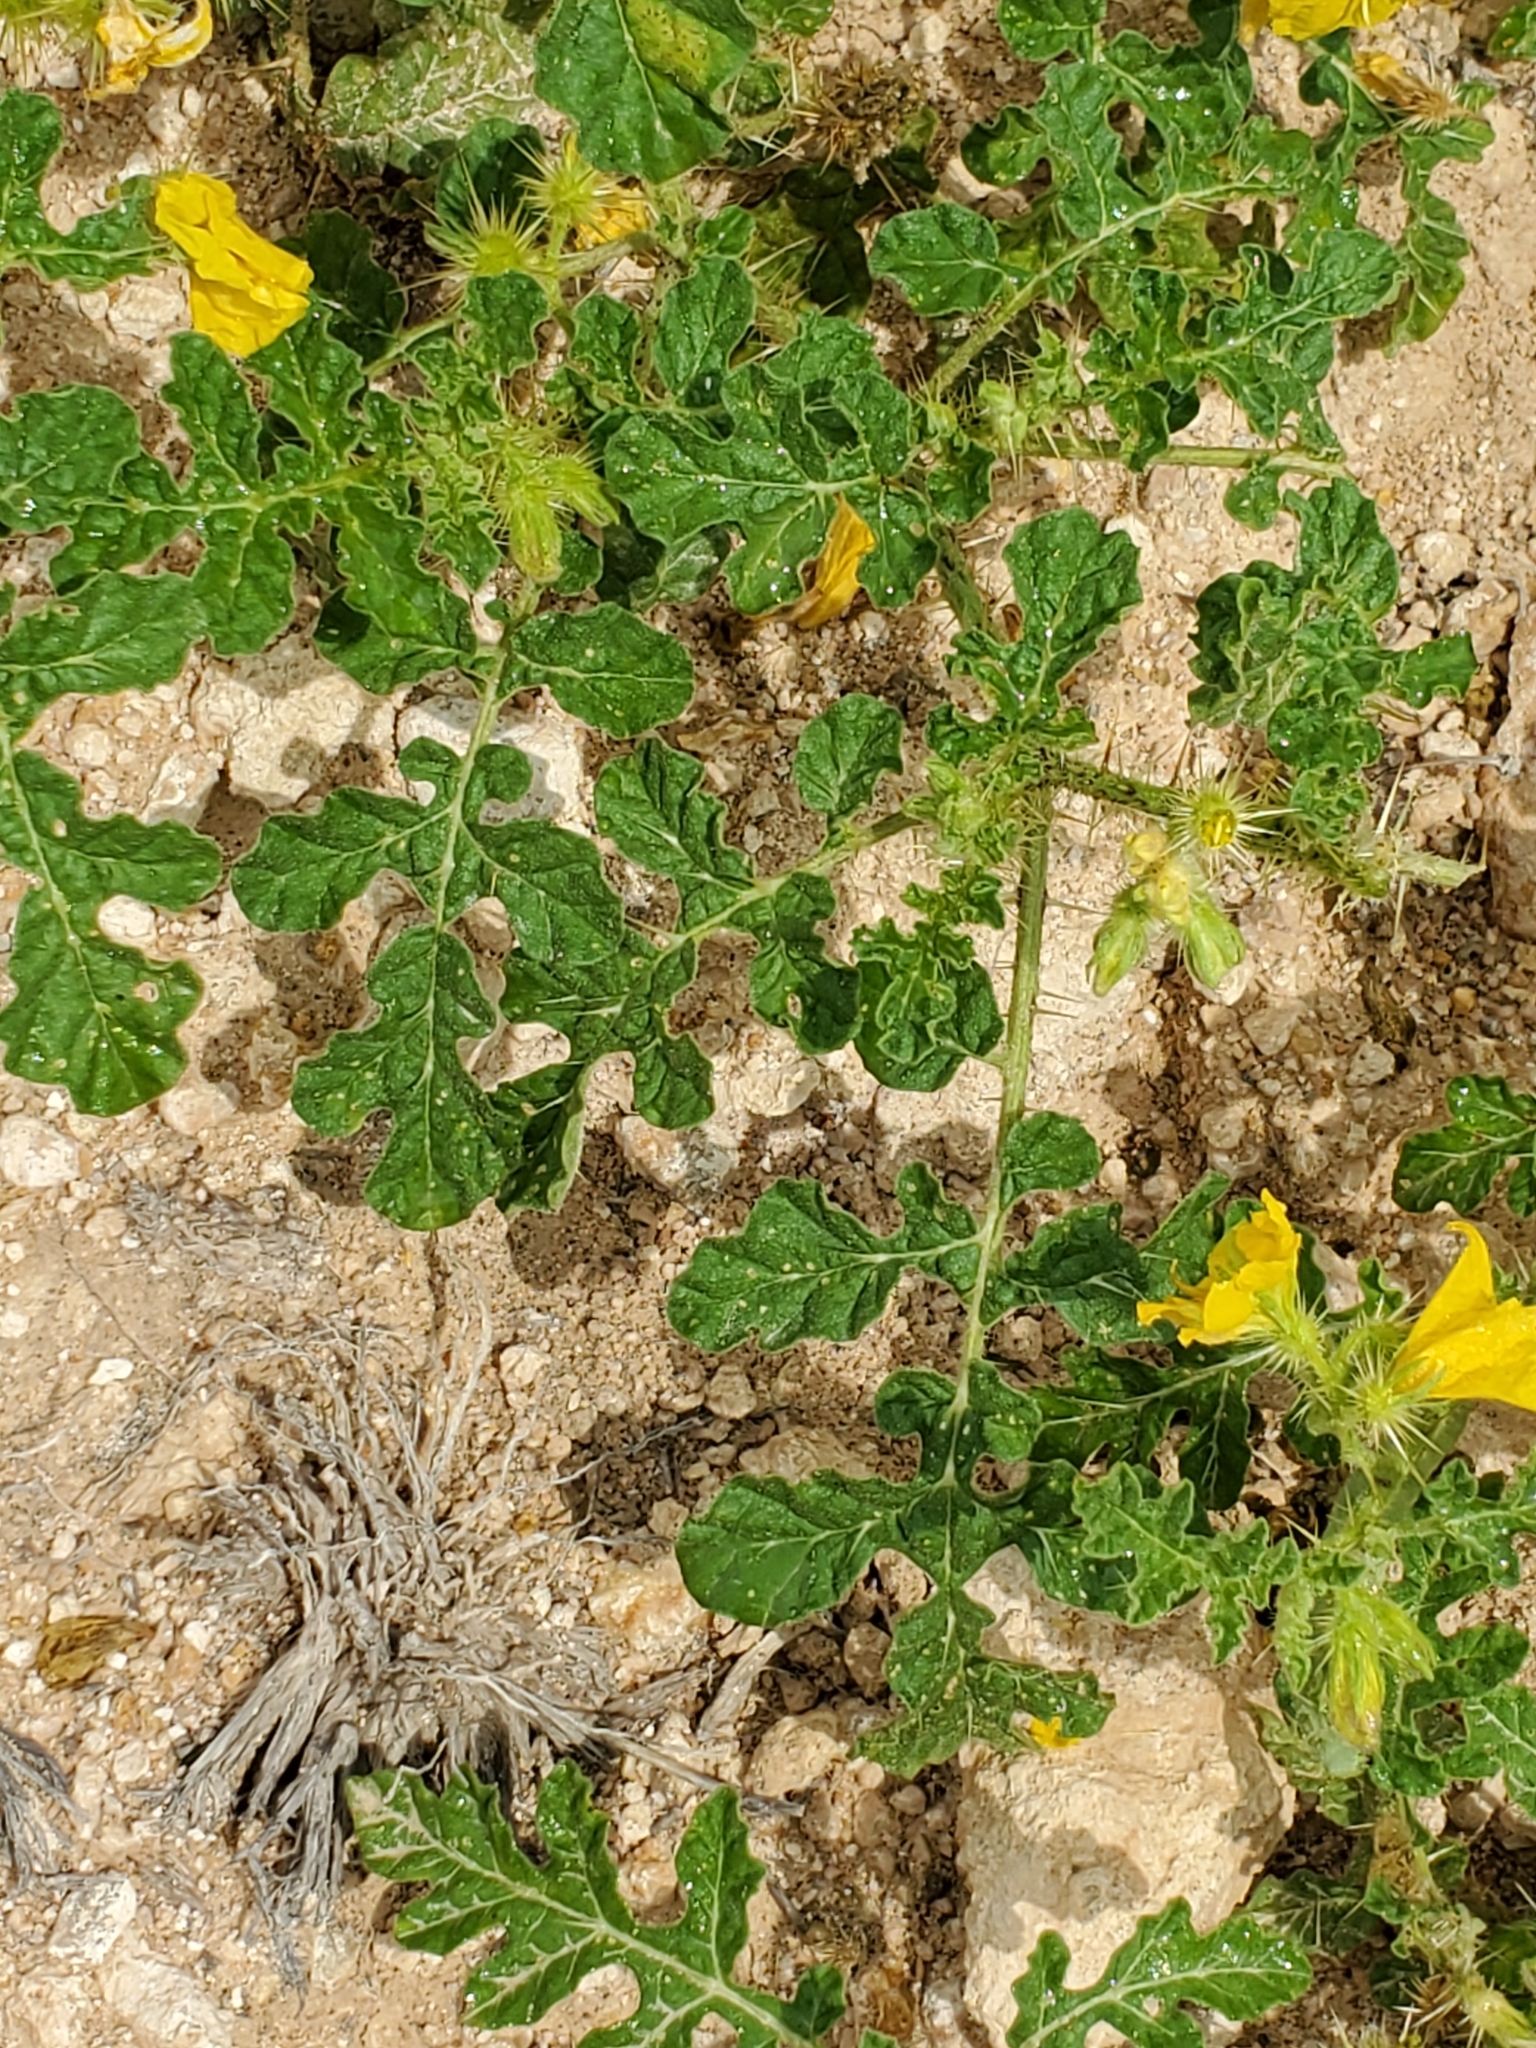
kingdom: Plantae
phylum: Tracheophyta
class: Magnoliopsida
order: Solanales
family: Solanaceae
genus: Solanum
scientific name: Solanum angustifolium
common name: Buffalobur nightshade
